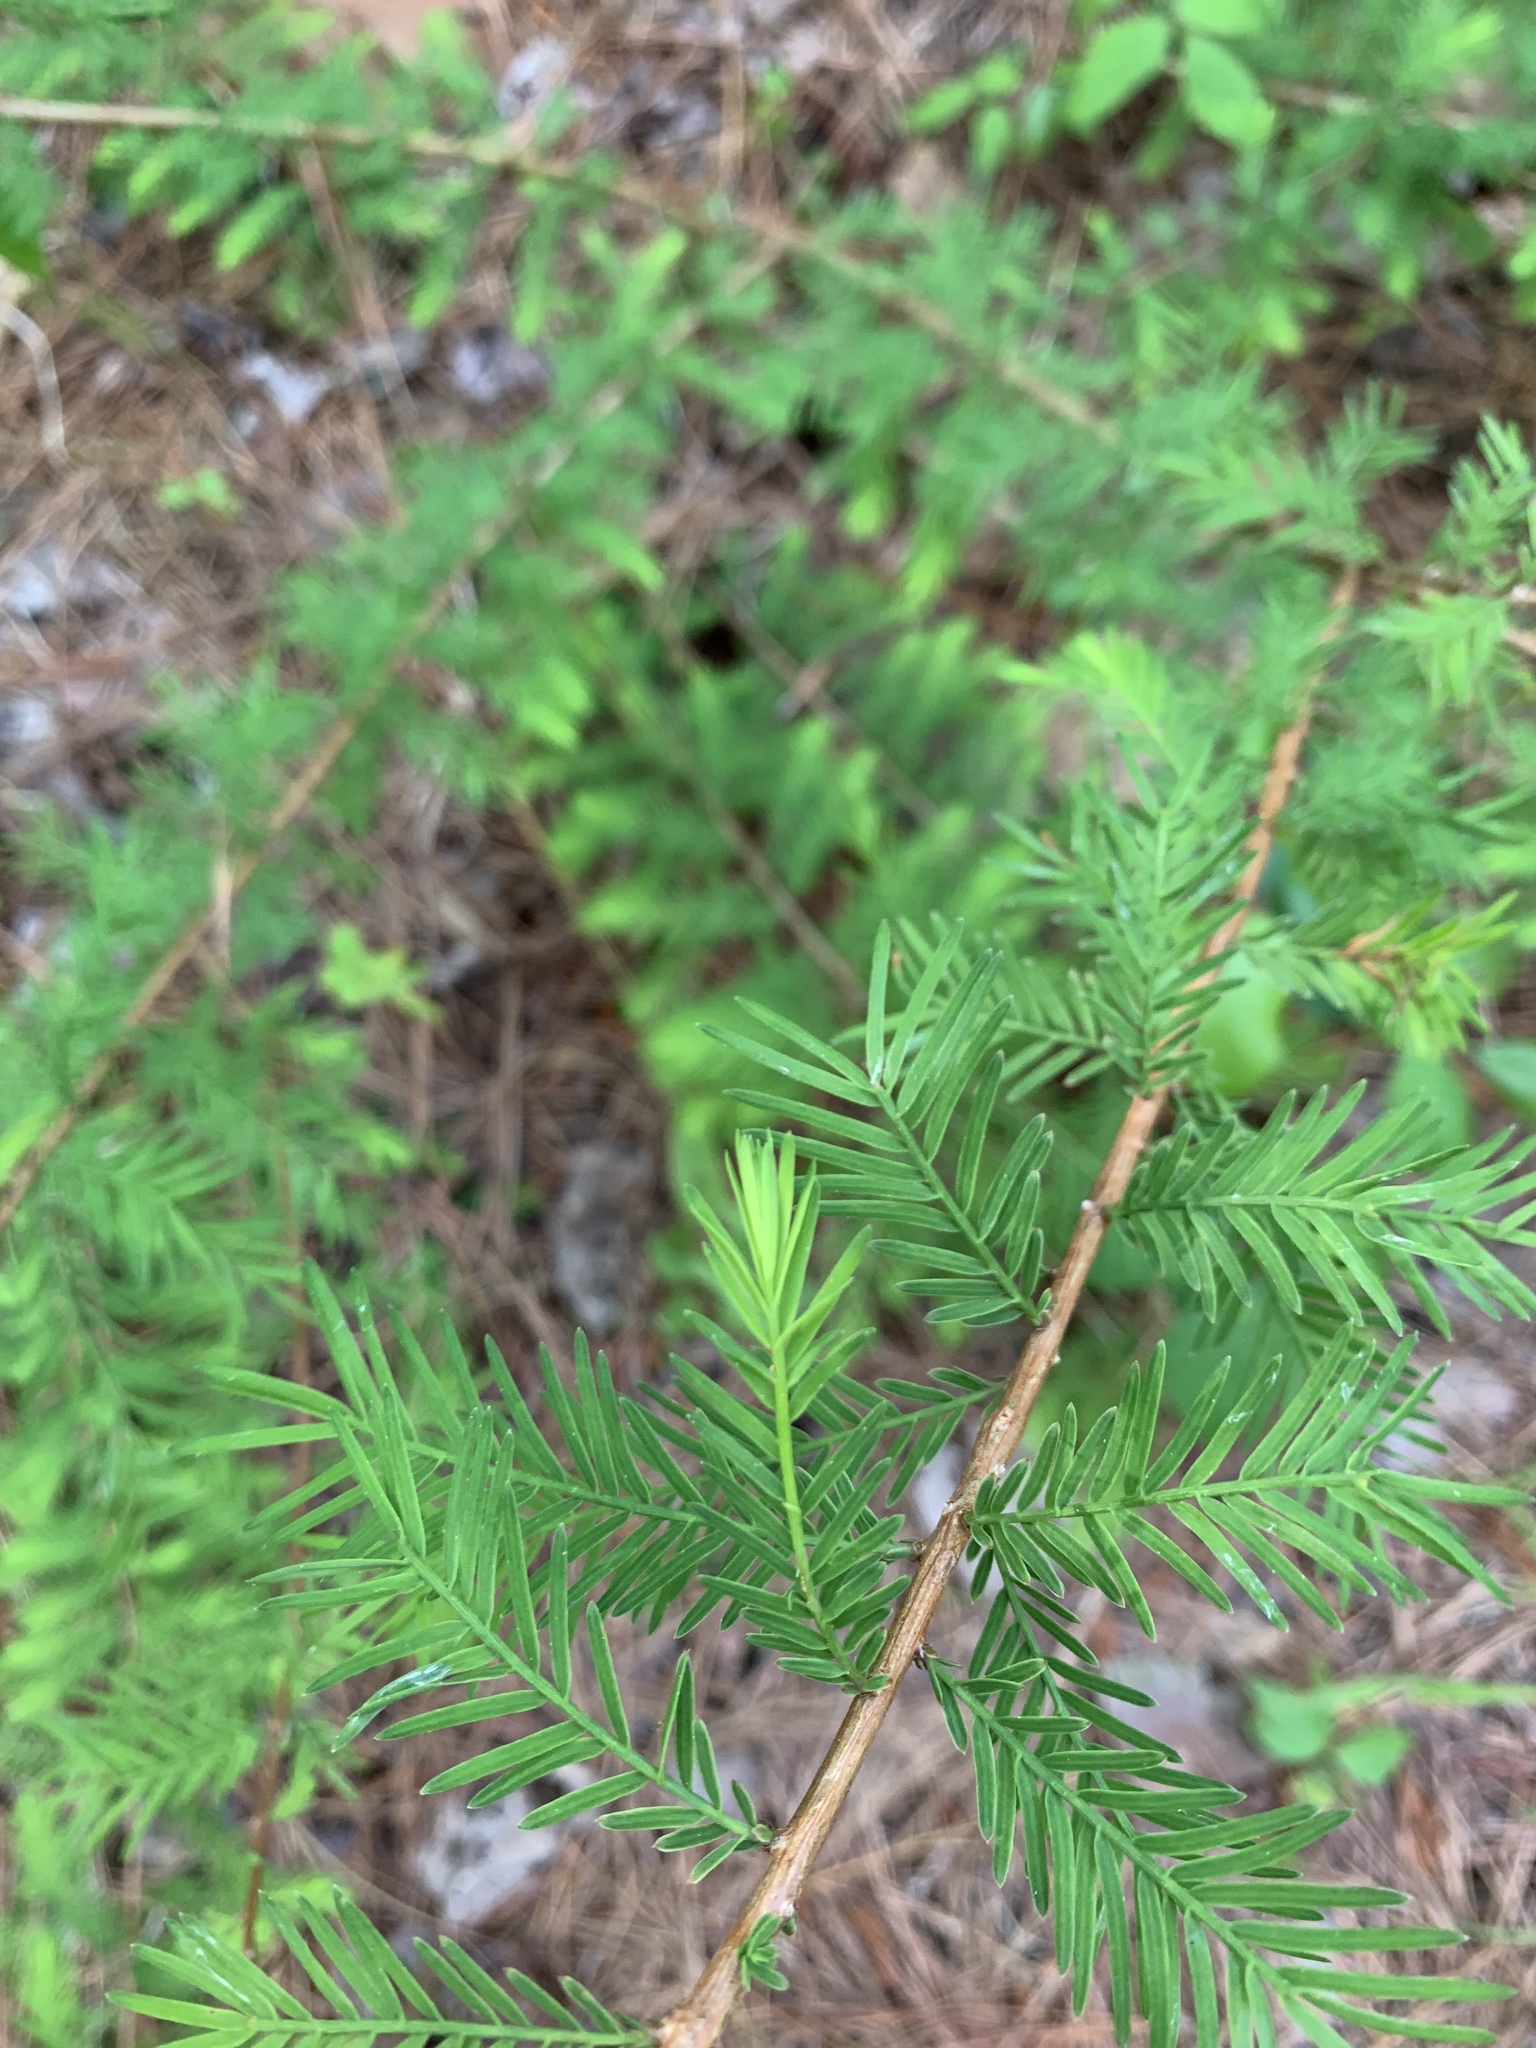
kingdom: Plantae
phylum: Tracheophyta
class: Pinopsida
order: Pinales
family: Cupressaceae
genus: Taxodium
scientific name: Taxodium distichum
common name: Bald cypress
